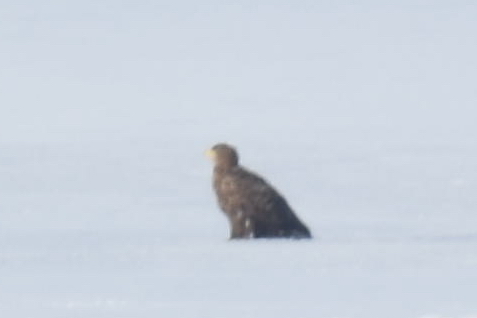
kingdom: Animalia
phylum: Chordata
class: Aves
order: Accipitriformes
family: Accipitridae
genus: Haliaeetus
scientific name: Haliaeetus albicilla
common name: White-tailed eagle
